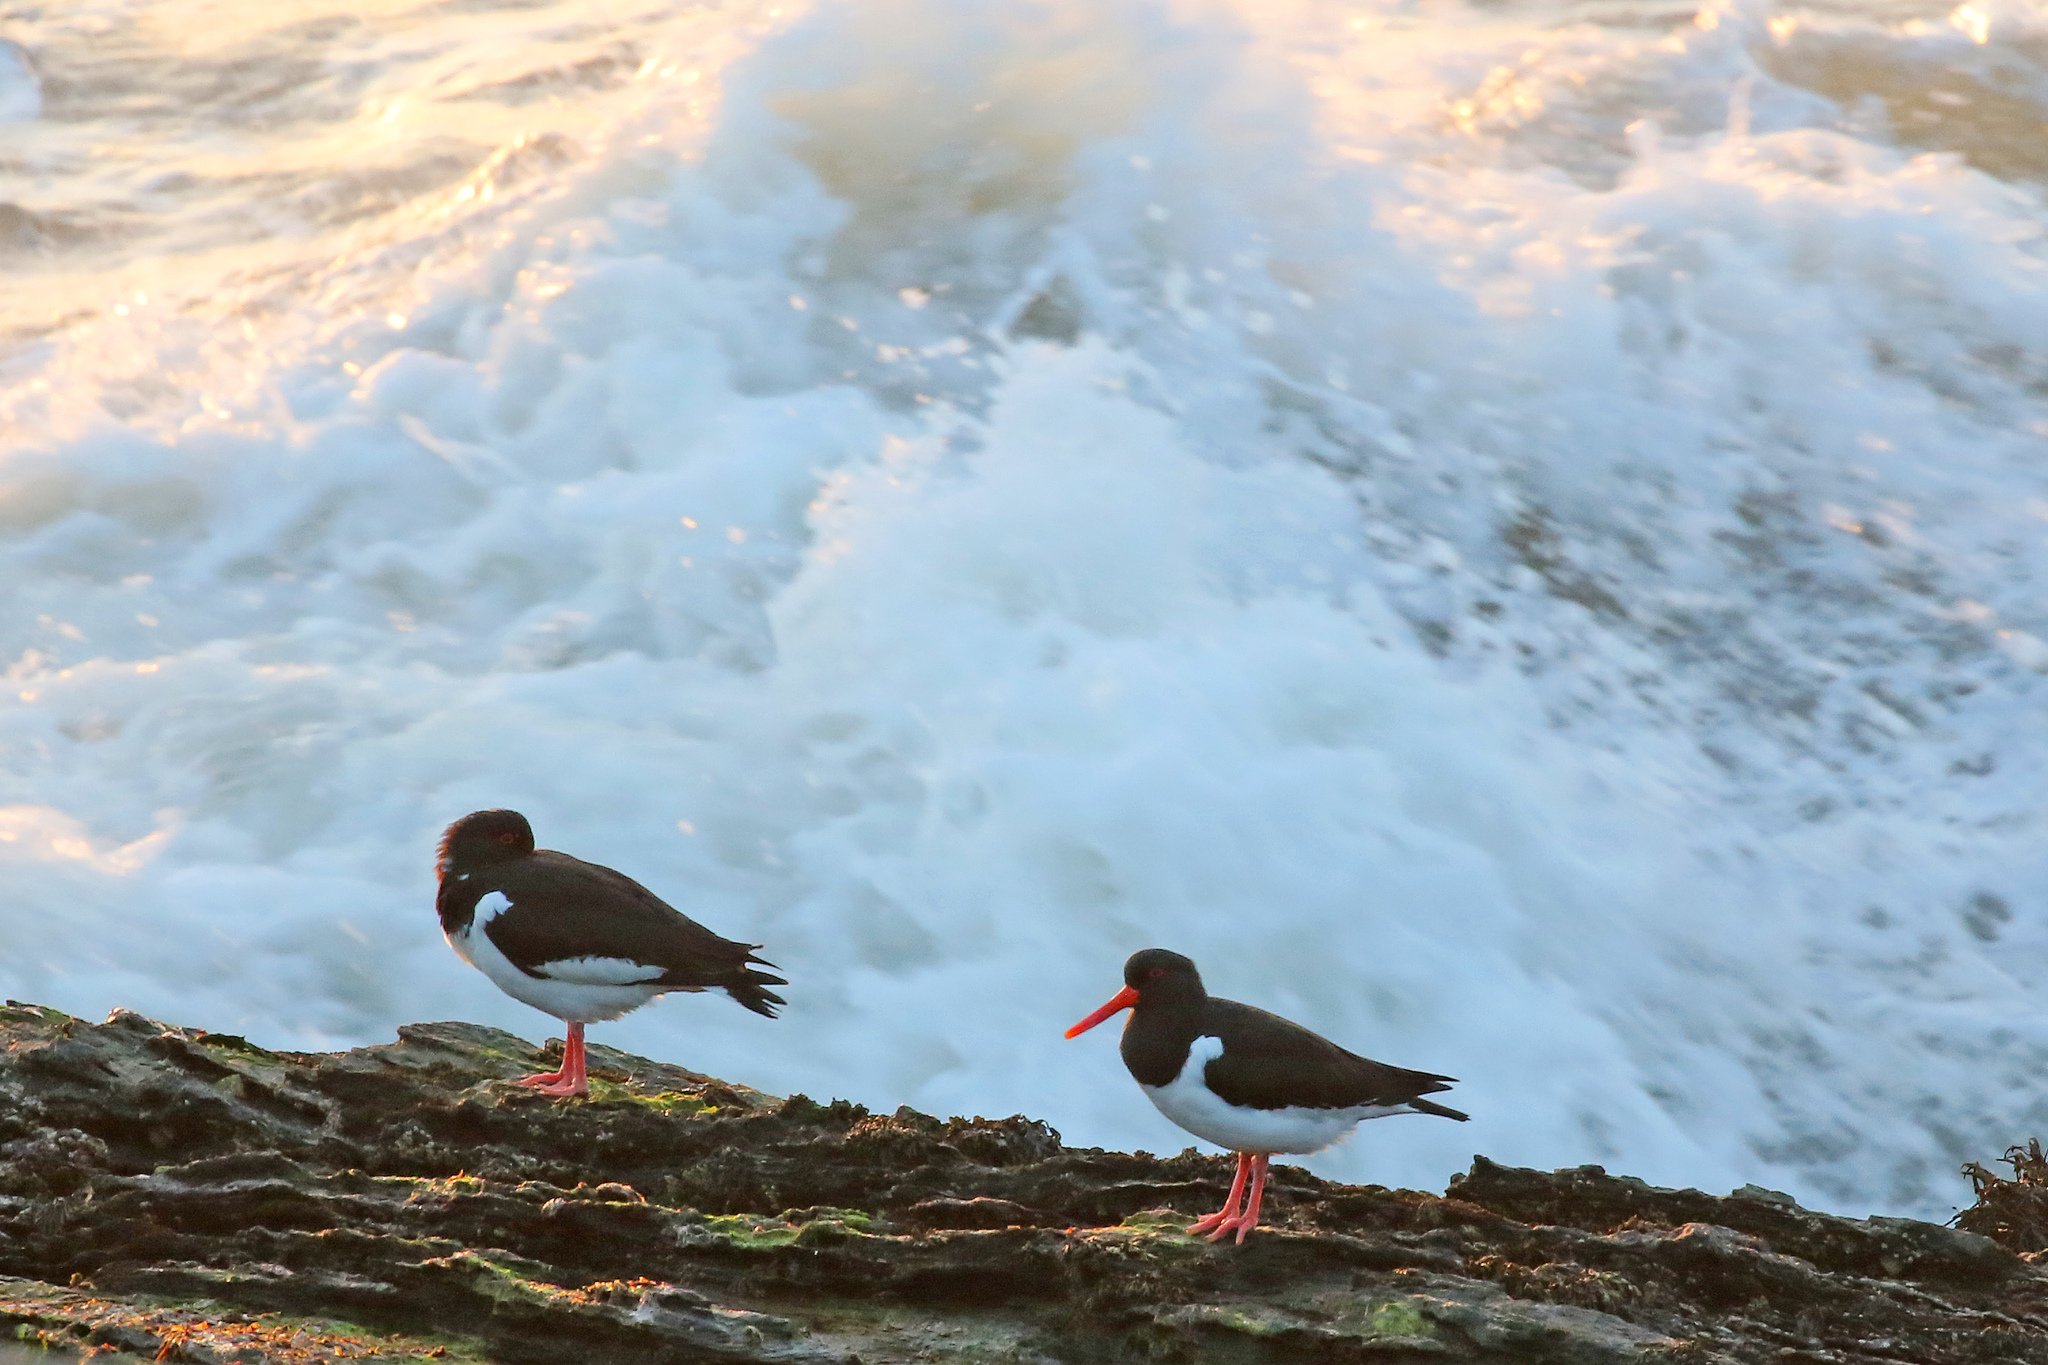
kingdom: Animalia
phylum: Chordata
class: Aves
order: Charadriiformes
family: Haematopodidae
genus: Haematopus
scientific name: Haematopus ostralegus
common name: Eurasian oystercatcher
